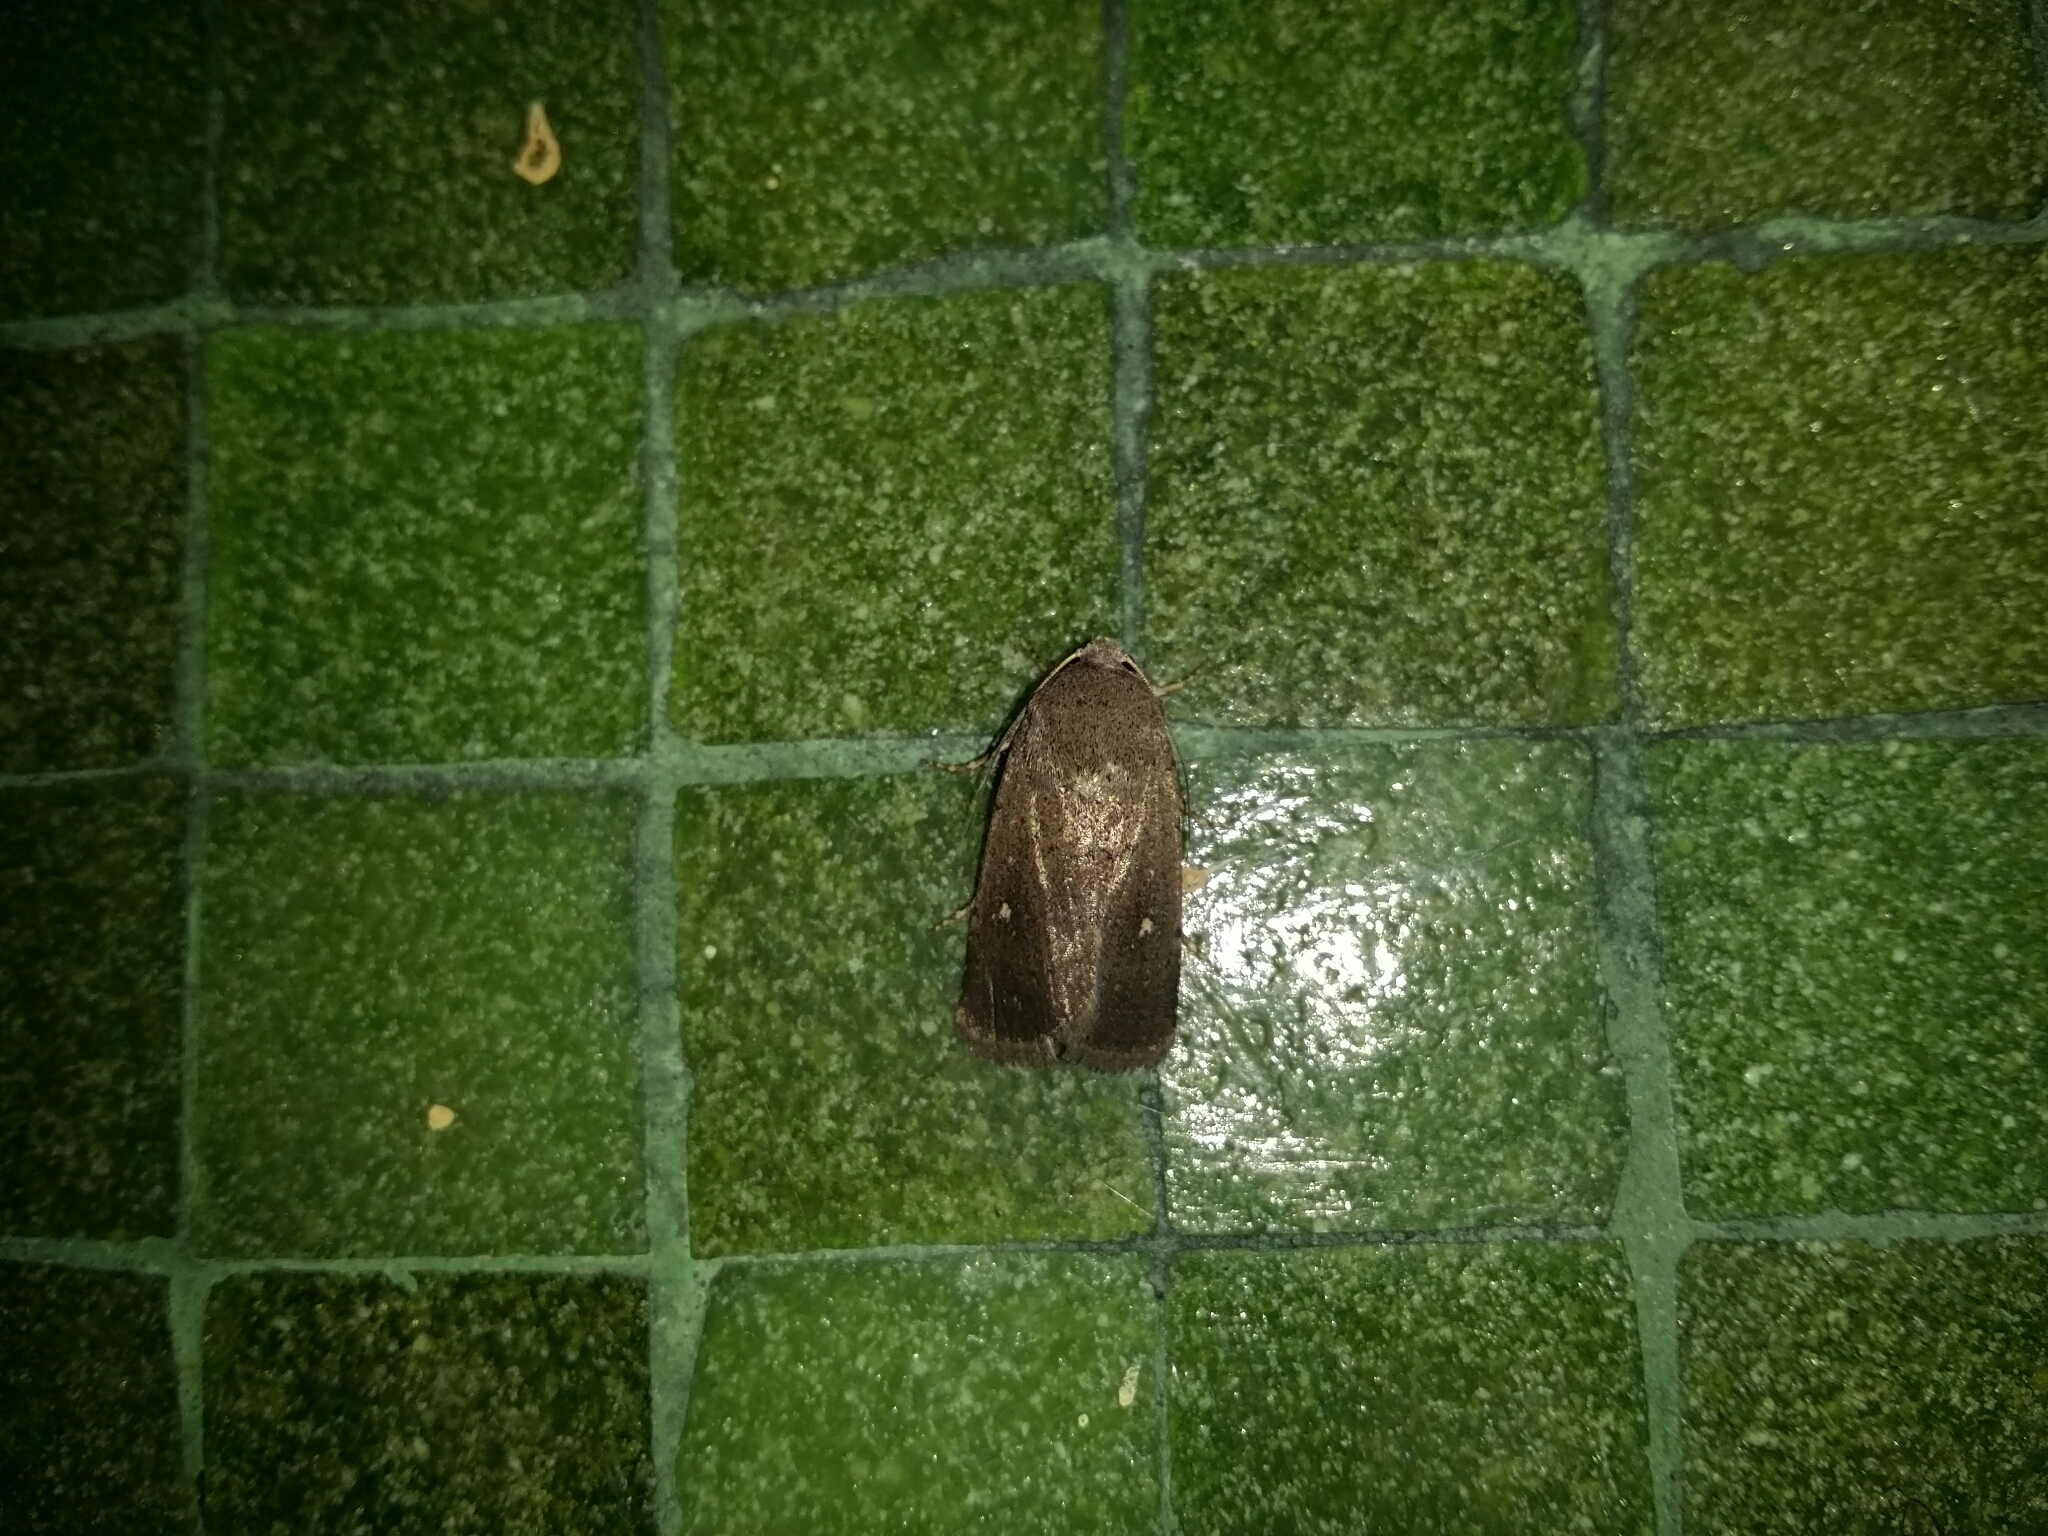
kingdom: Animalia
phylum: Arthropoda
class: Insecta
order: Lepidoptera
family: Noctuidae
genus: Proteuxoa
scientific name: Proteuxoa hypochalchis
